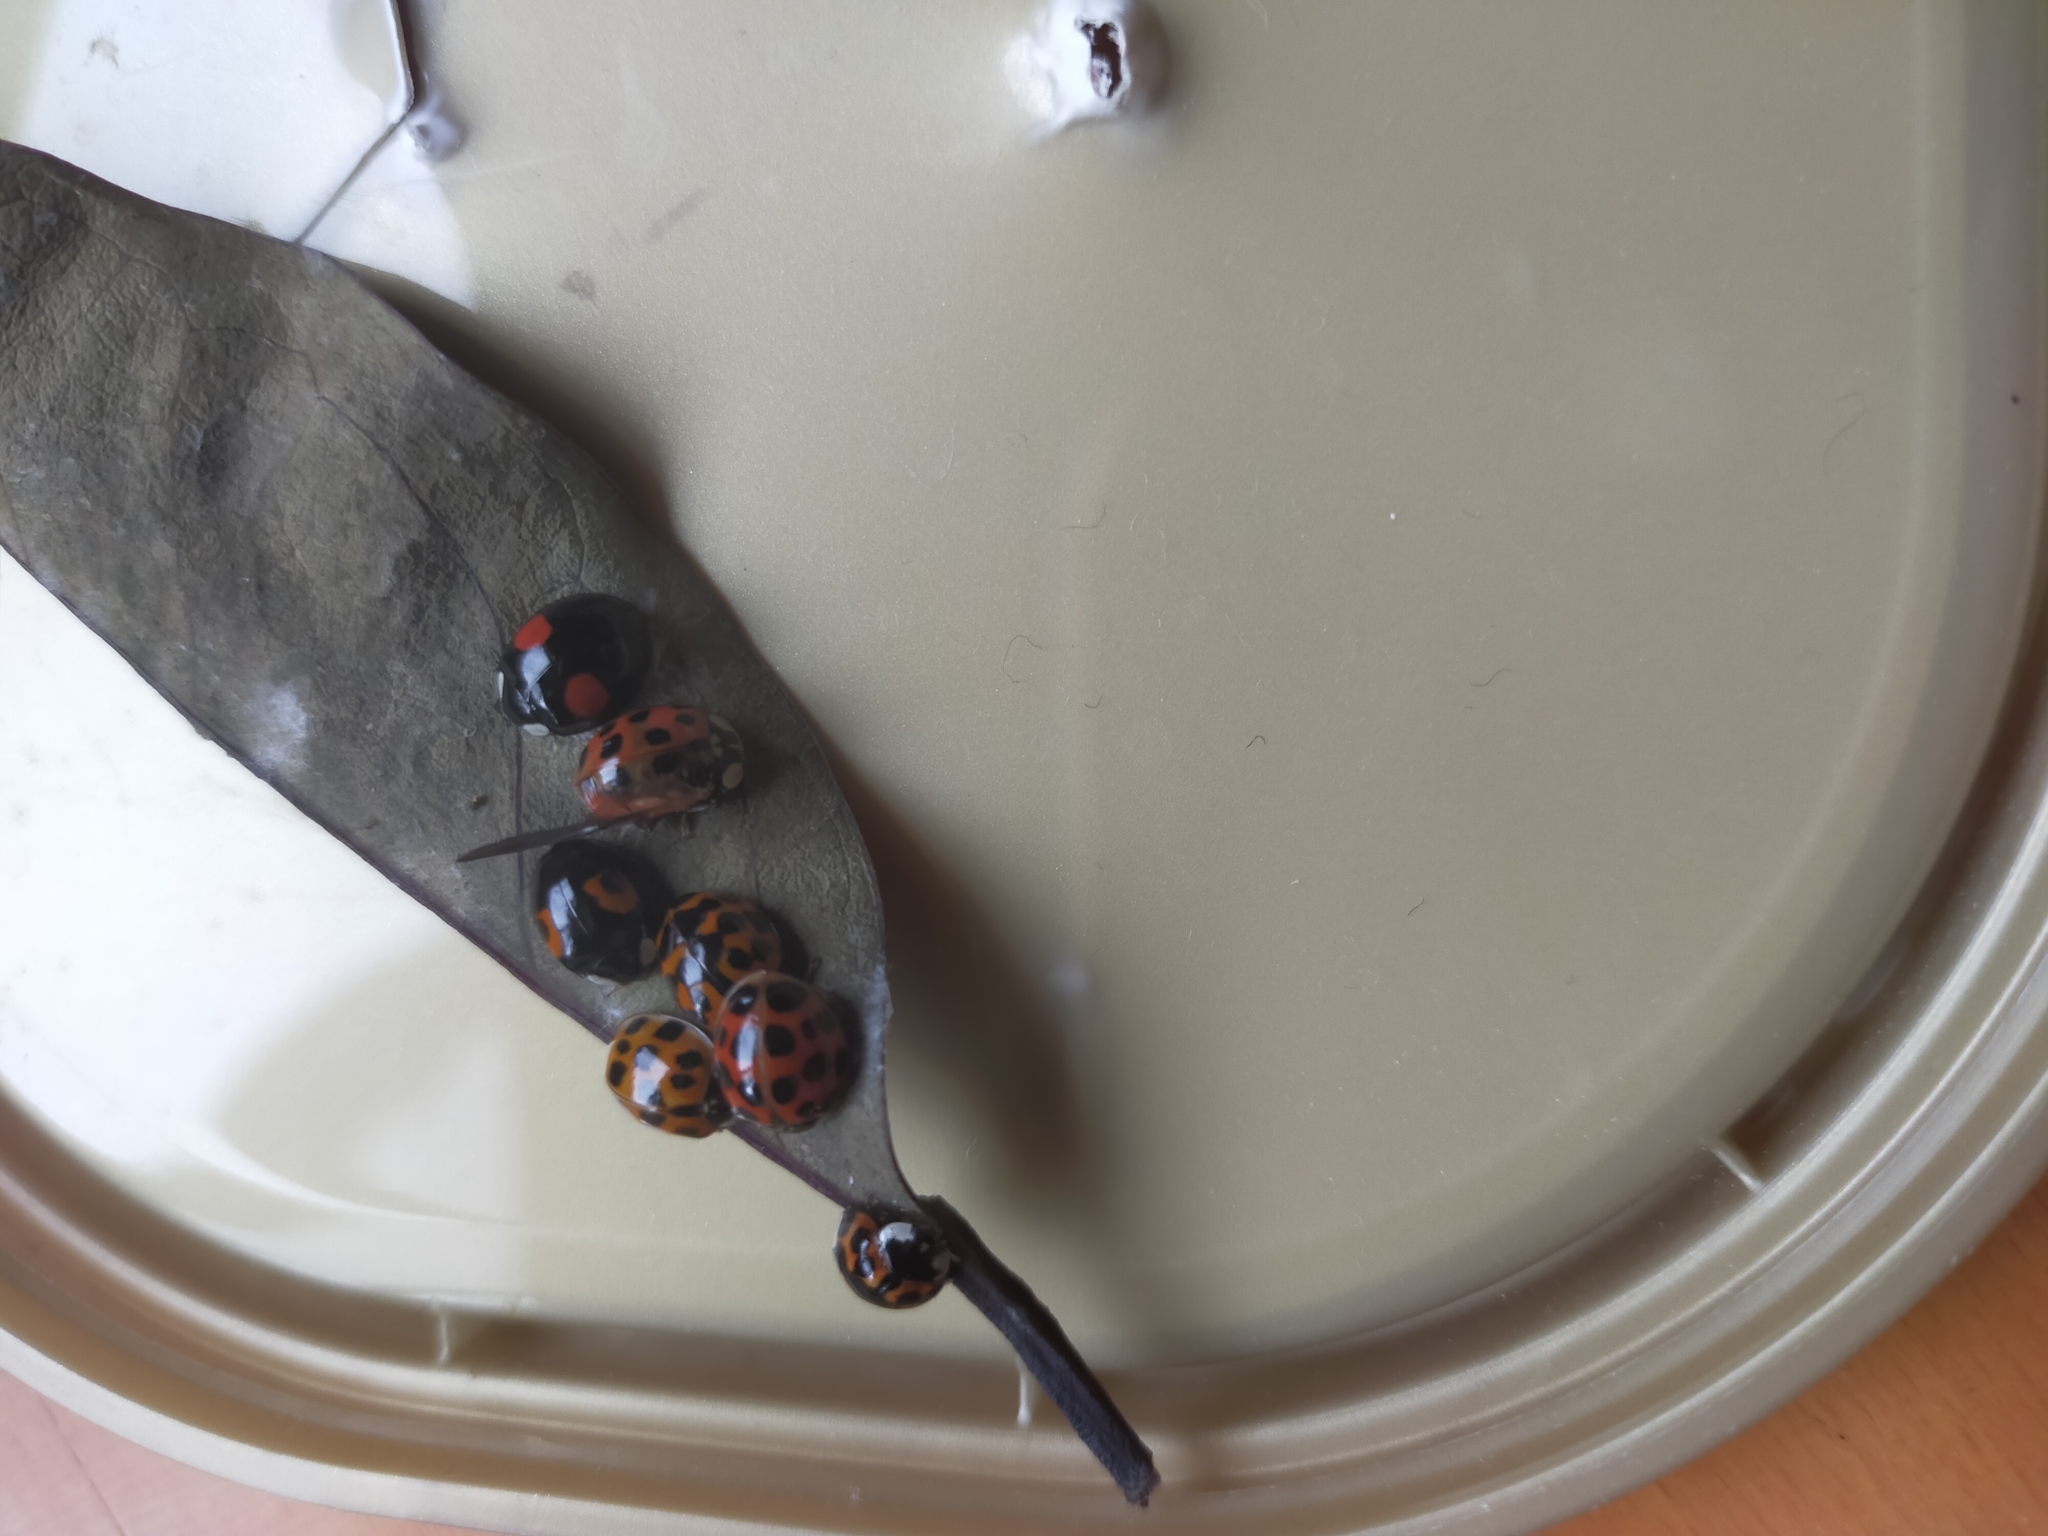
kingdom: Animalia
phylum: Arthropoda
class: Insecta
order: Coleoptera
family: Coccinellidae
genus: Harmonia
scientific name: Harmonia axyridis
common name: Harlequin ladybird
